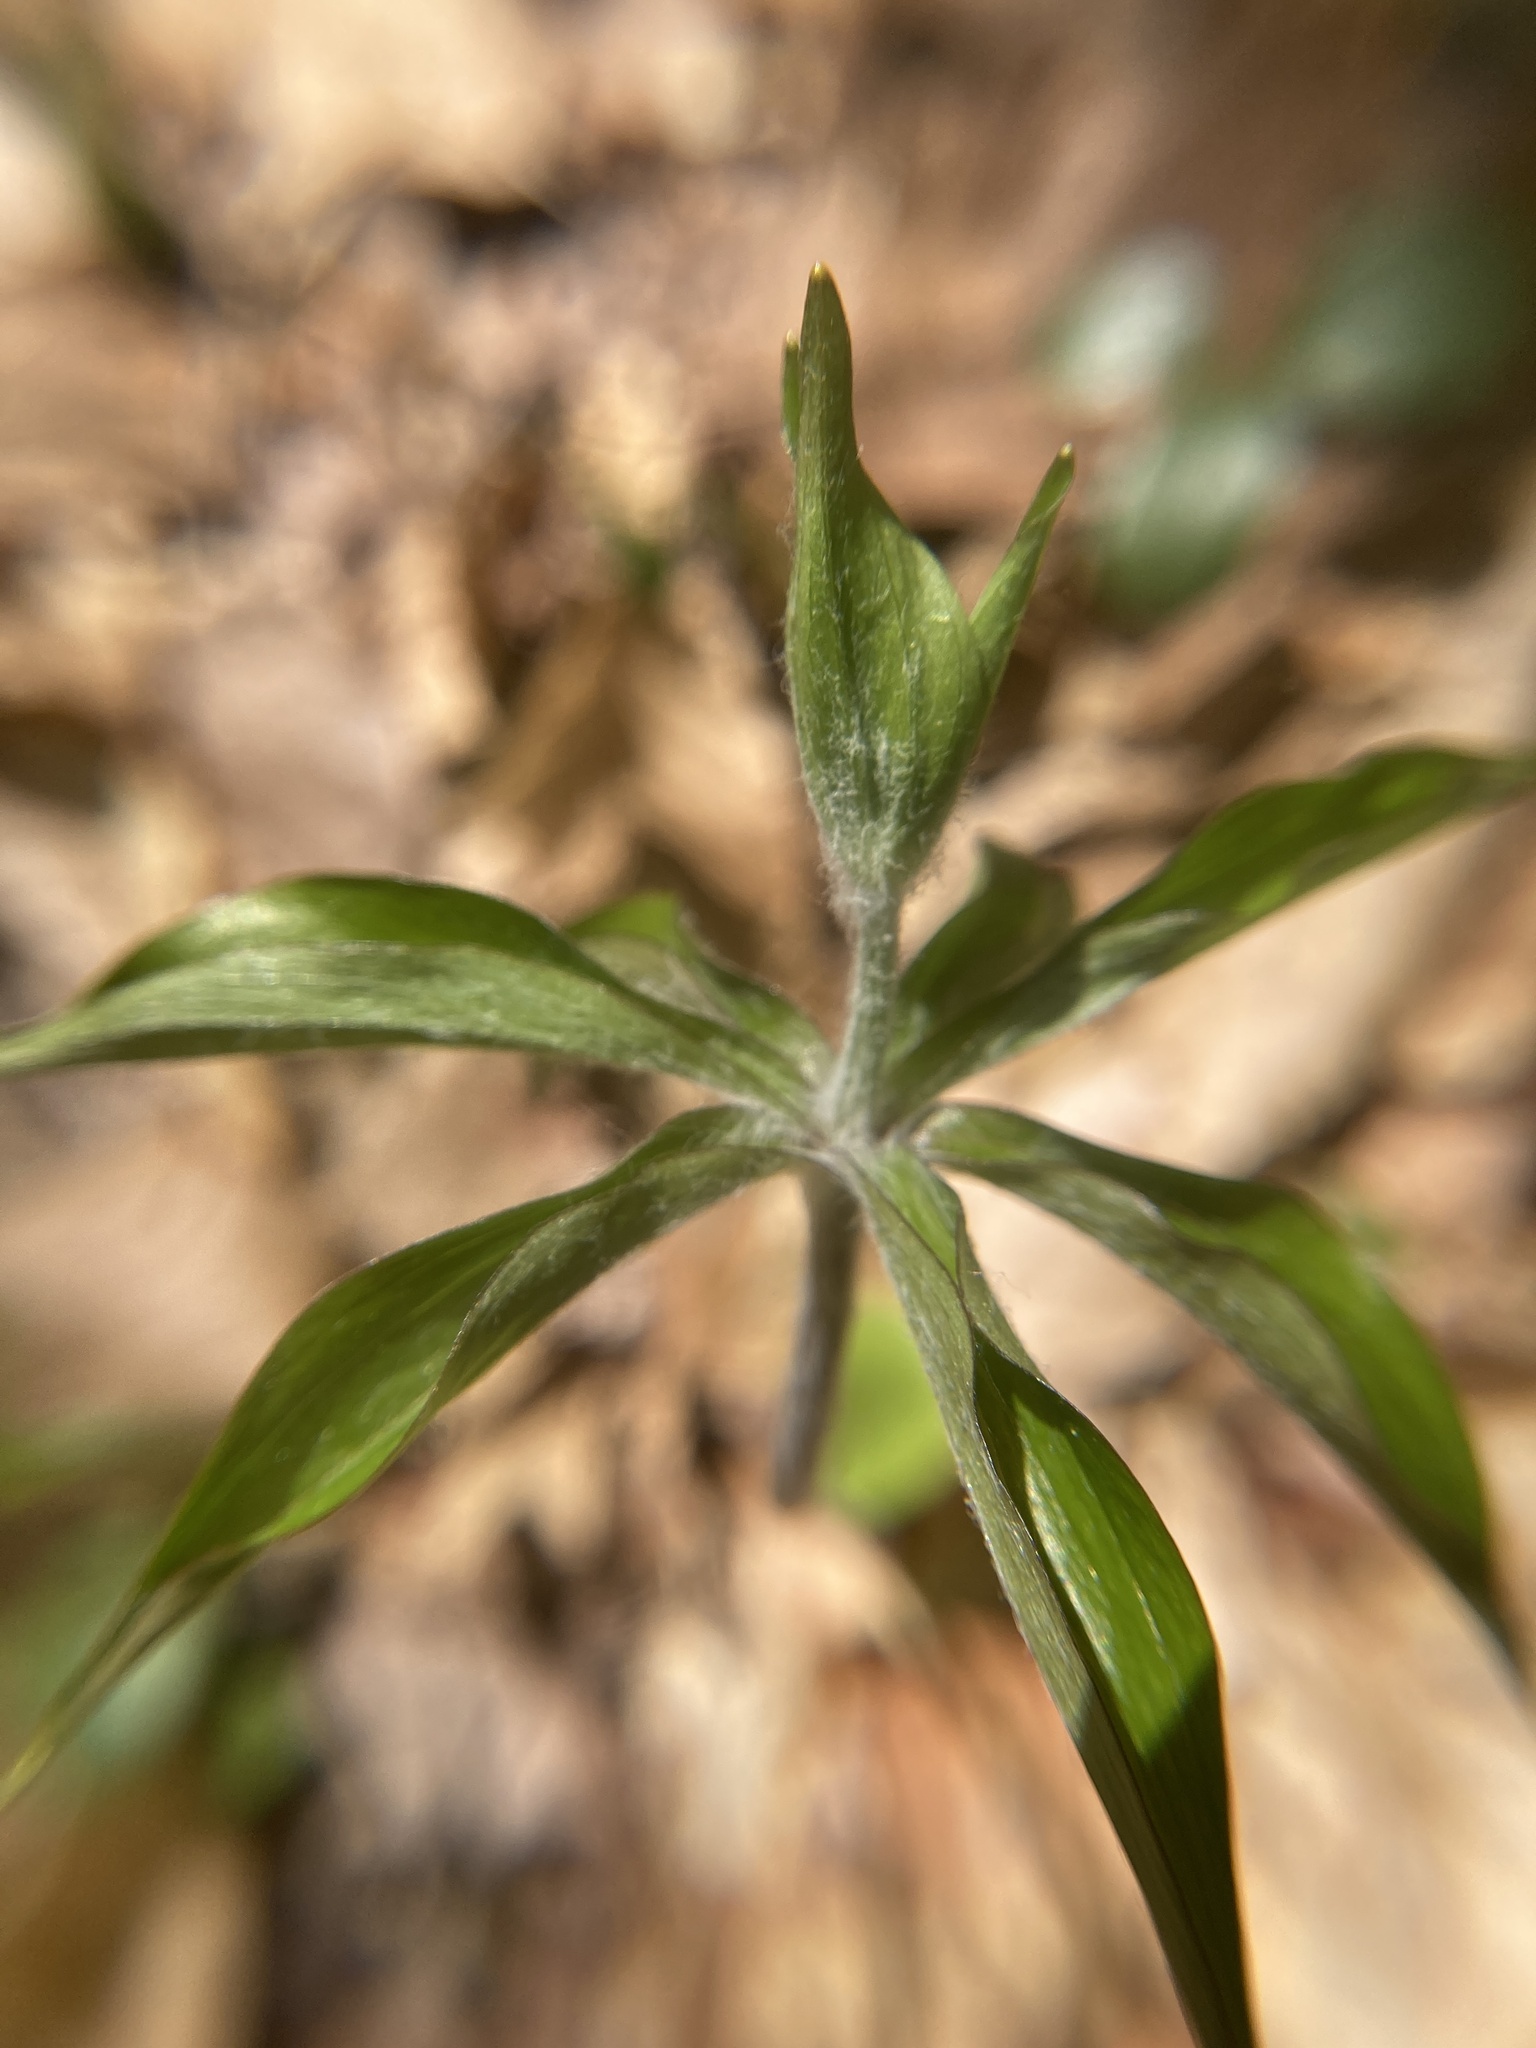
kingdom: Plantae
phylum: Tracheophyta
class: Liliopsida
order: Liliales
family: Liliaceae
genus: Medeola
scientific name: Medeola virginiana
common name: Indian cucumber-root
